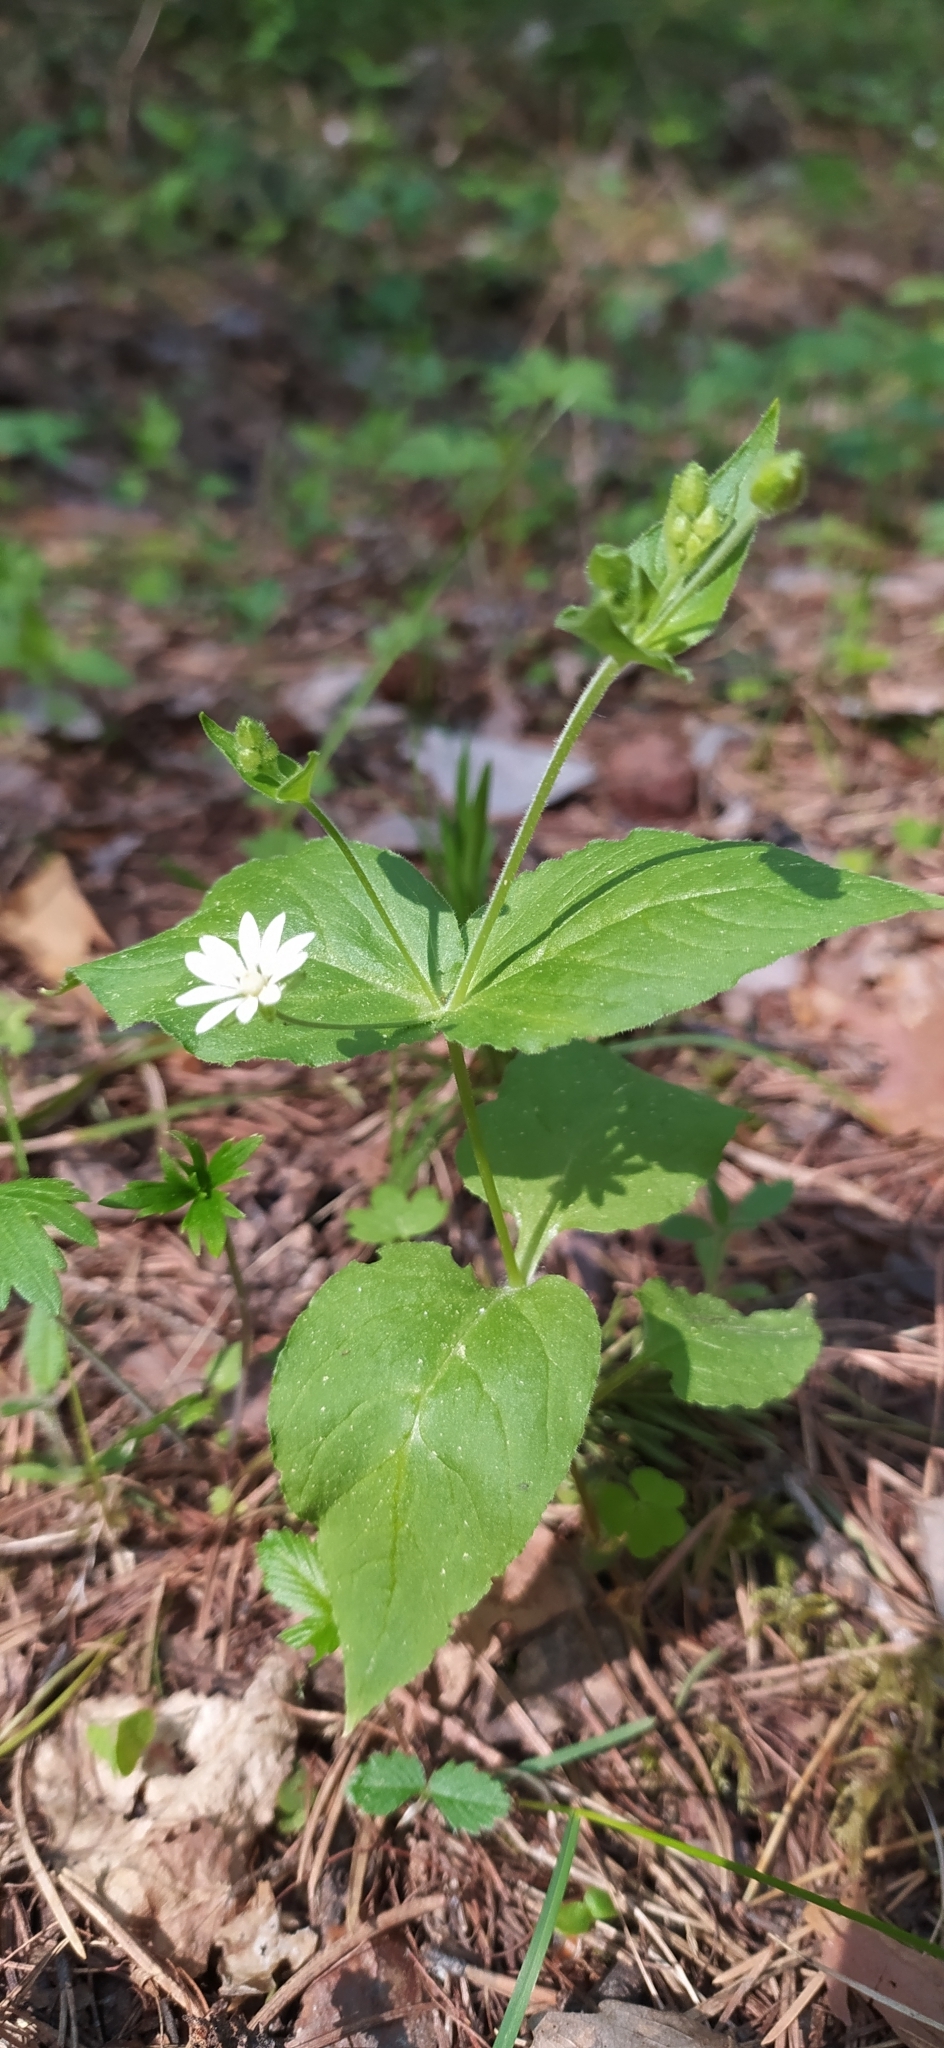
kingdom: Plantae
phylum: Tracheophyta
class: Magnoliopsida
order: Caryophyllales
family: Caryophyllaceae
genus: Stellaria
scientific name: Stellaria bungeana
